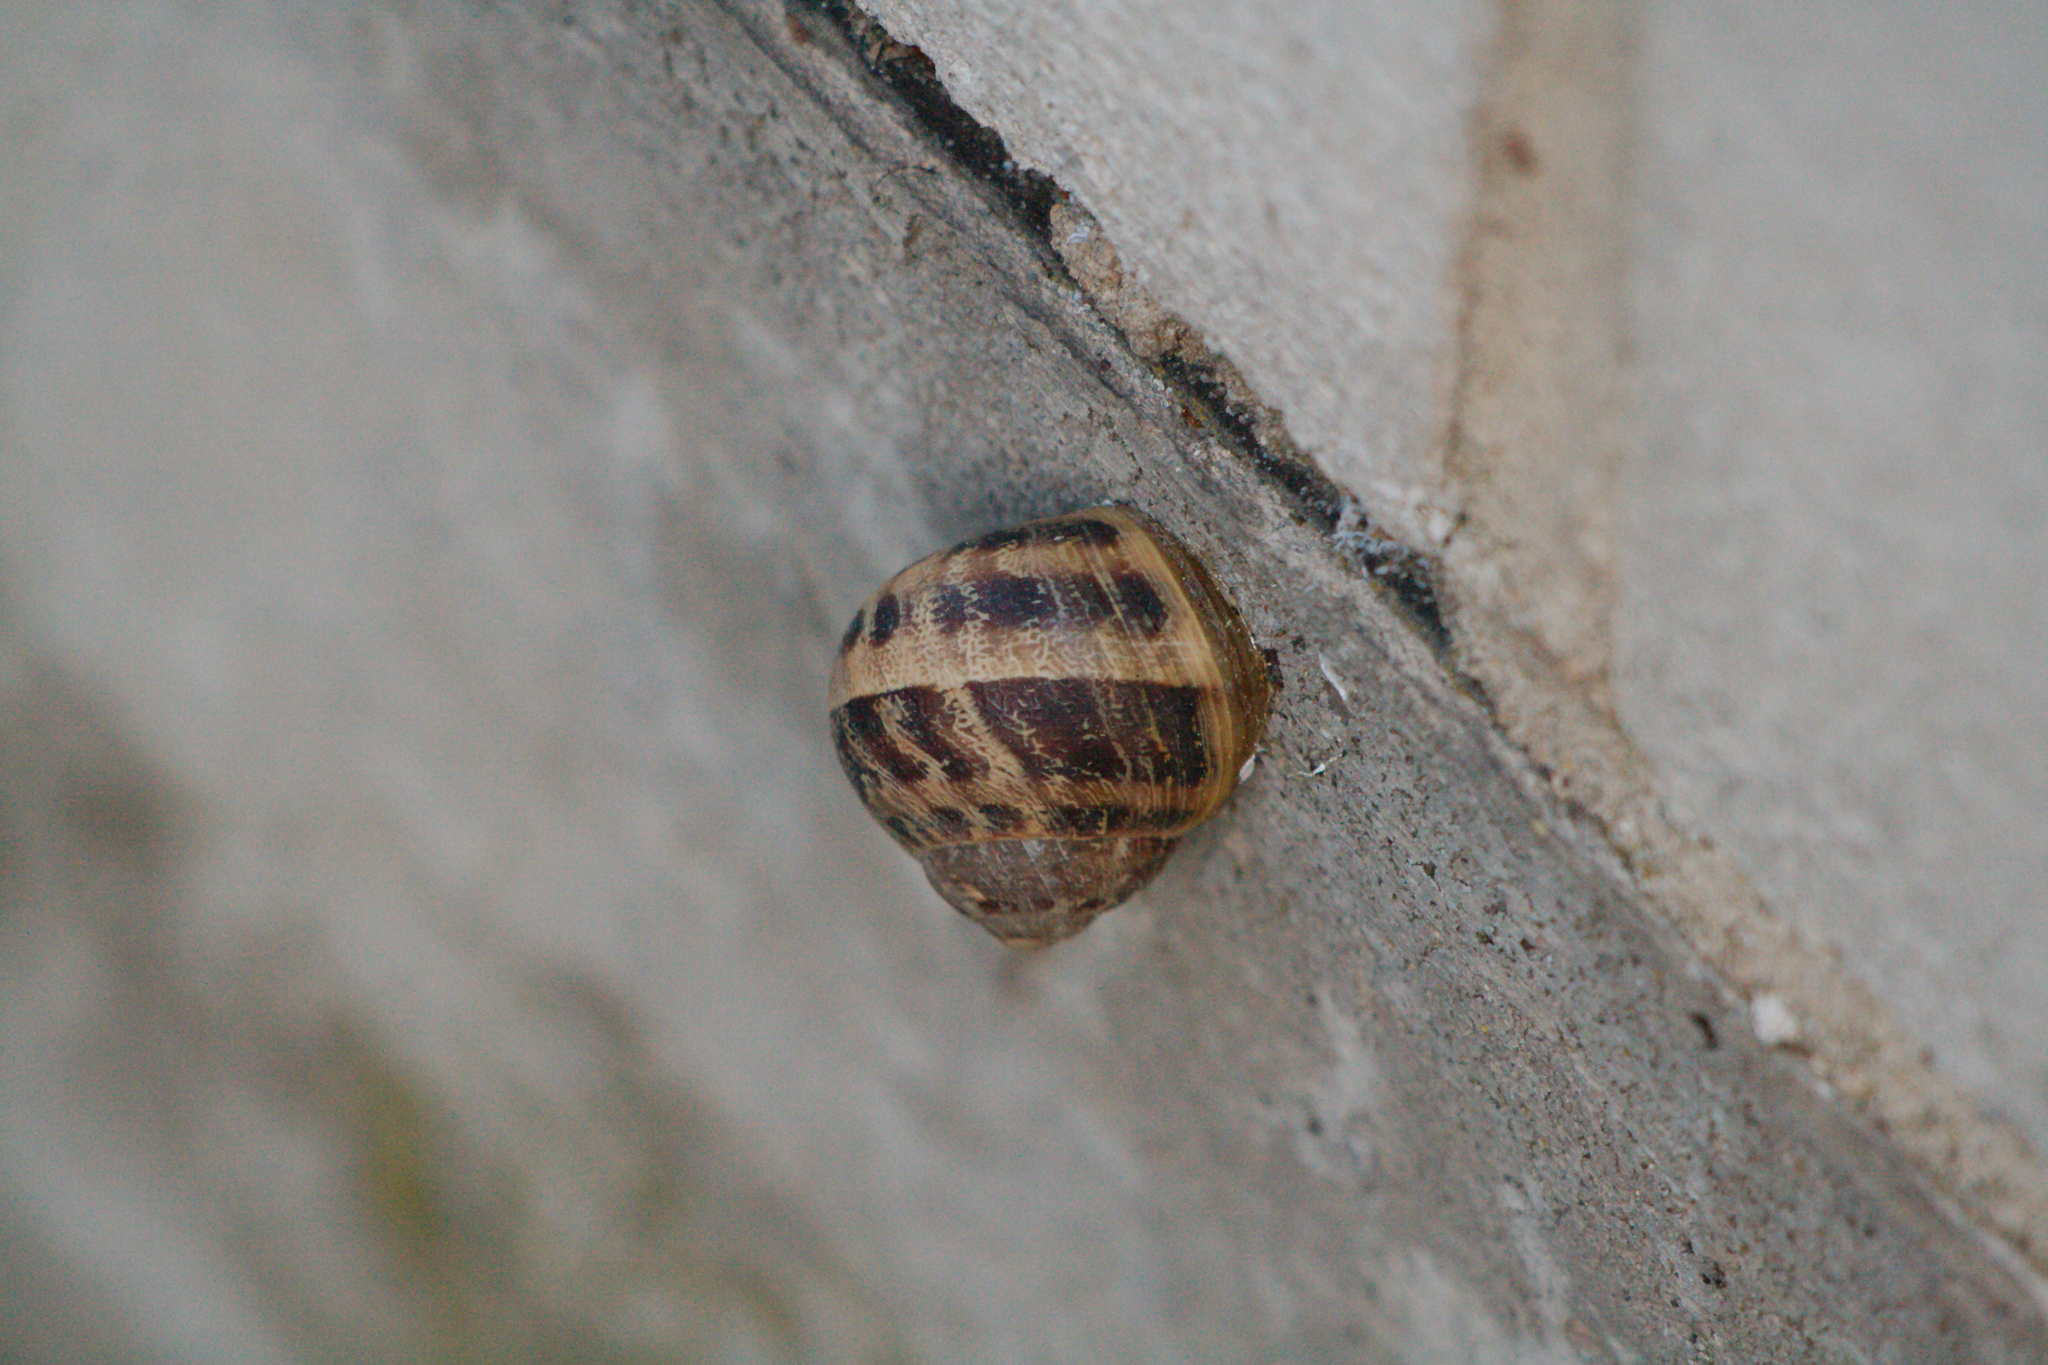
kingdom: Animalia
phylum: Mollusca
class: Gastropoda
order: Stylommatophora
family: Helicidae
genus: Cornu
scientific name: Cornu aspersum
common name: Brown garden snail
